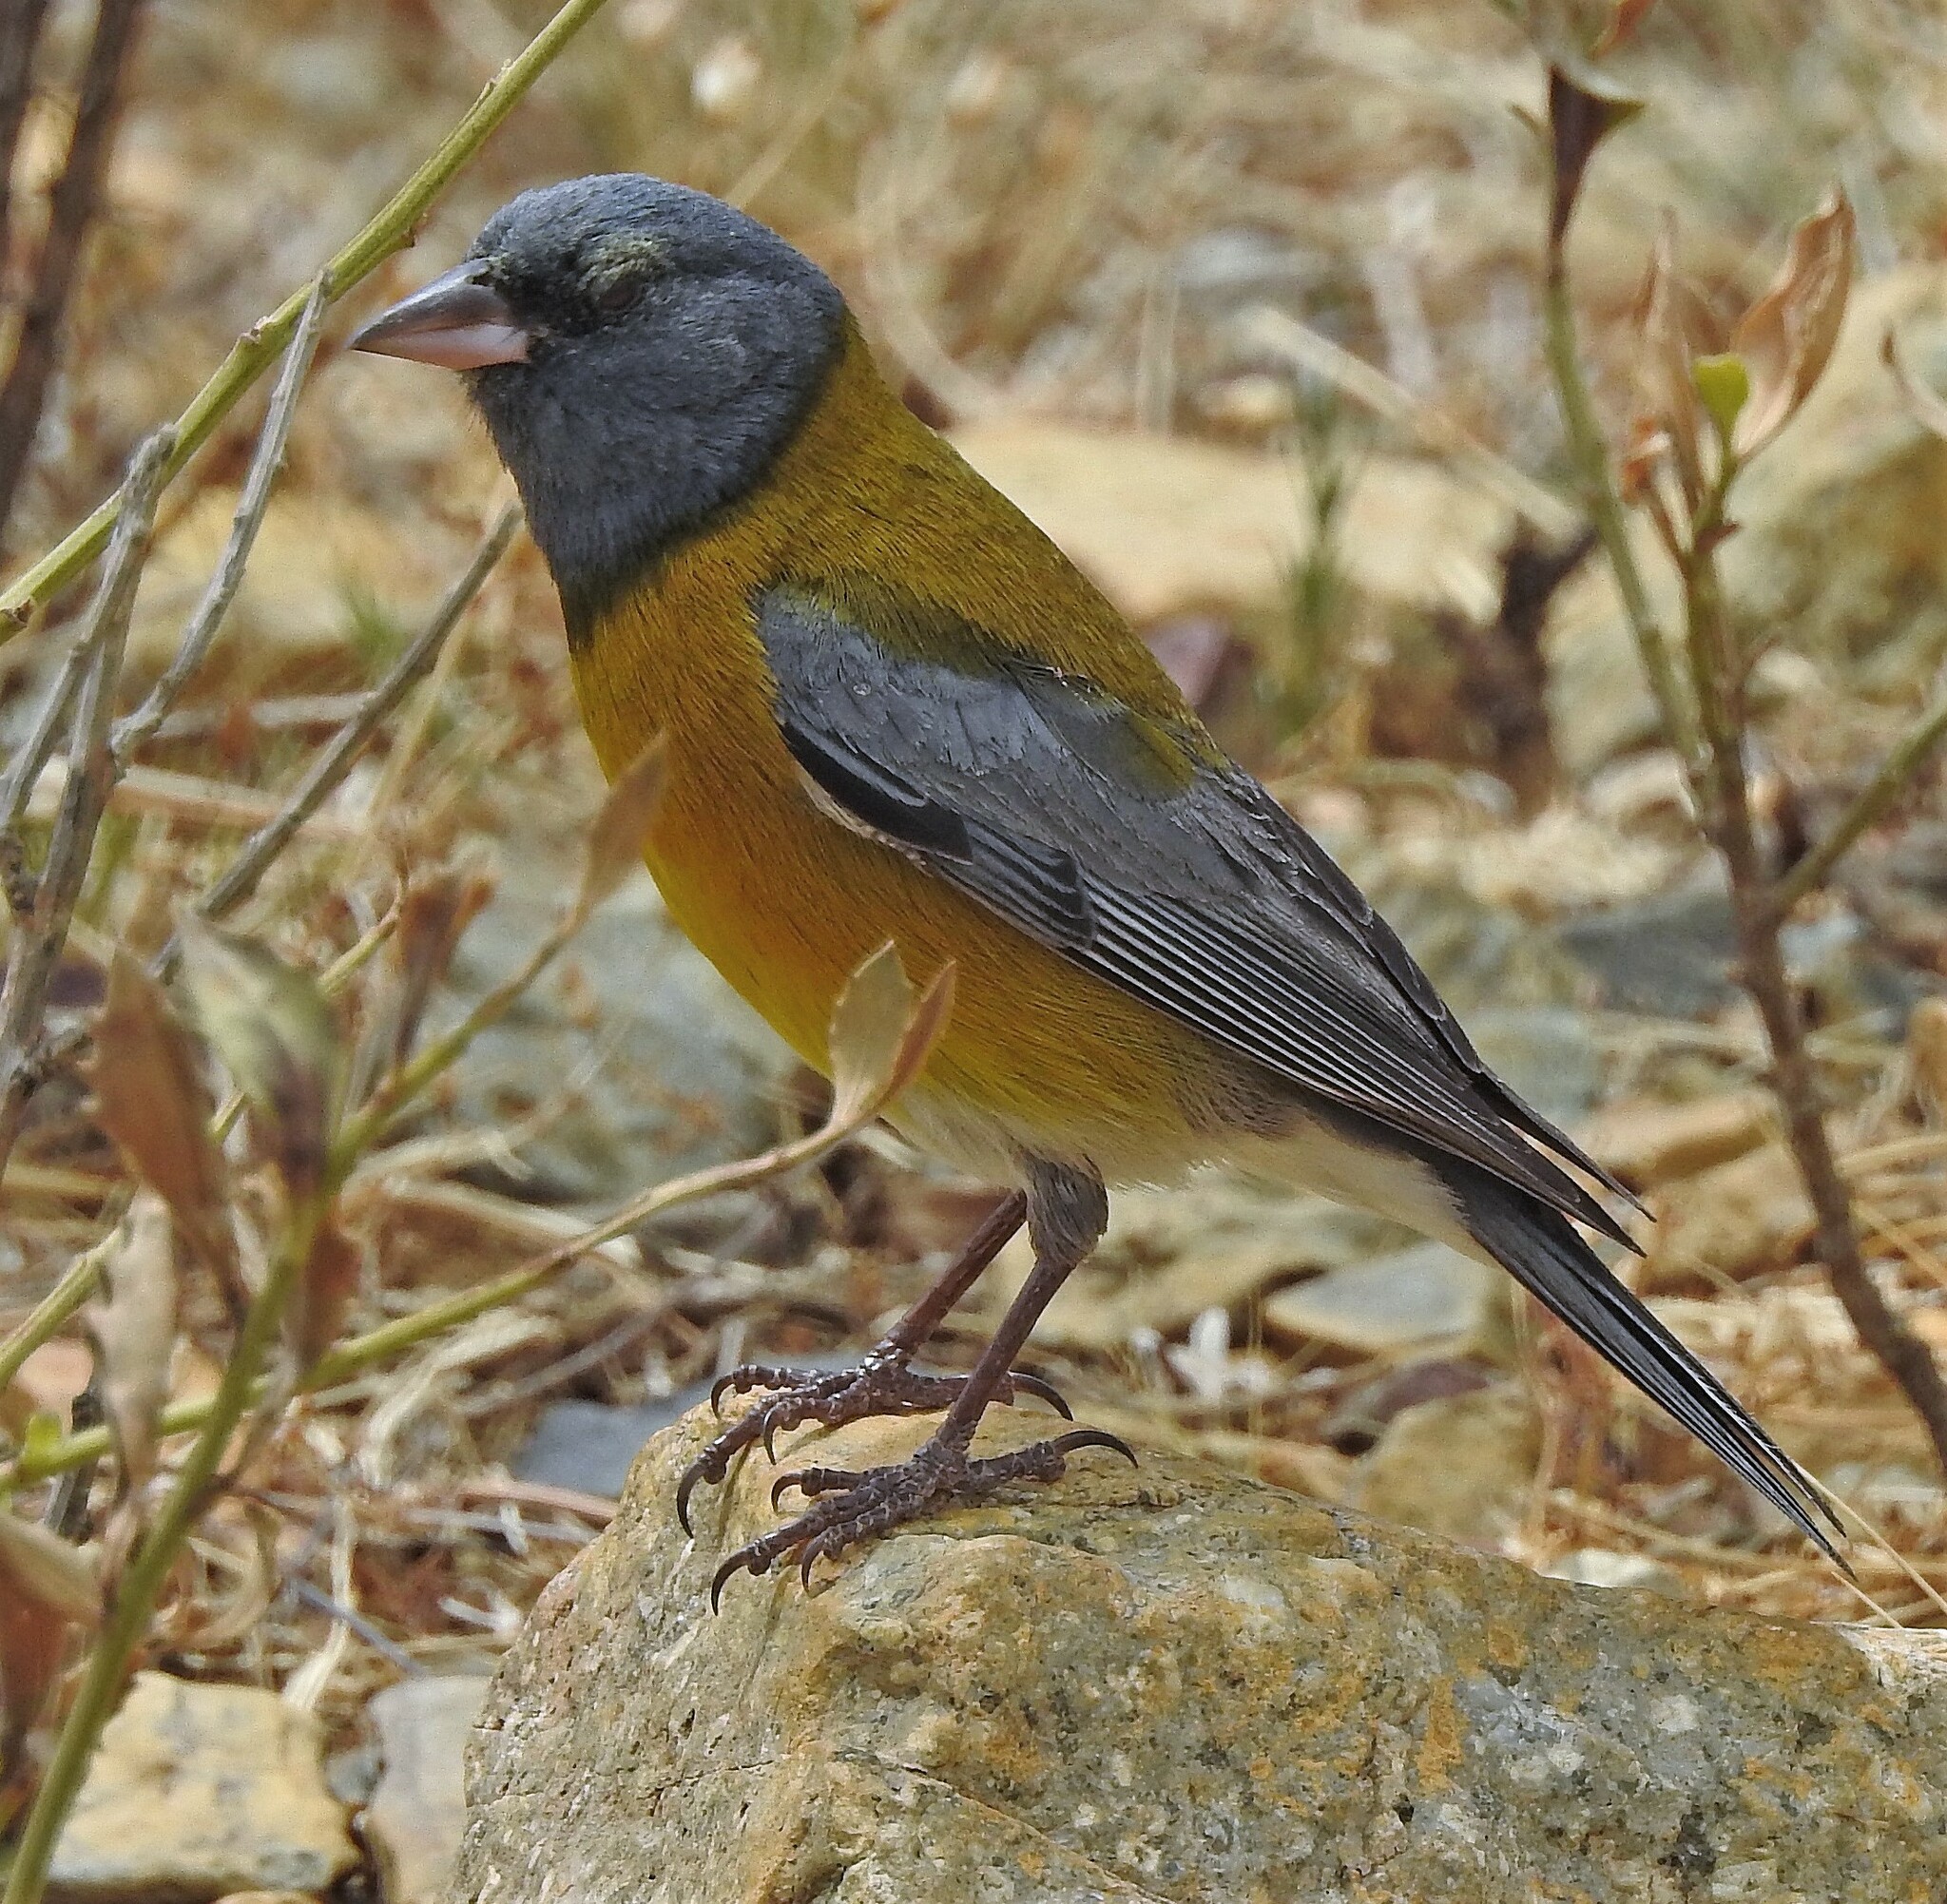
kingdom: Animalia
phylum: Chordata
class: Aves
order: Passeriformes
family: Thraupidae
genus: Phrygilus
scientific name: Phrygilus gayi
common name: Grey-hooded sierra finch
